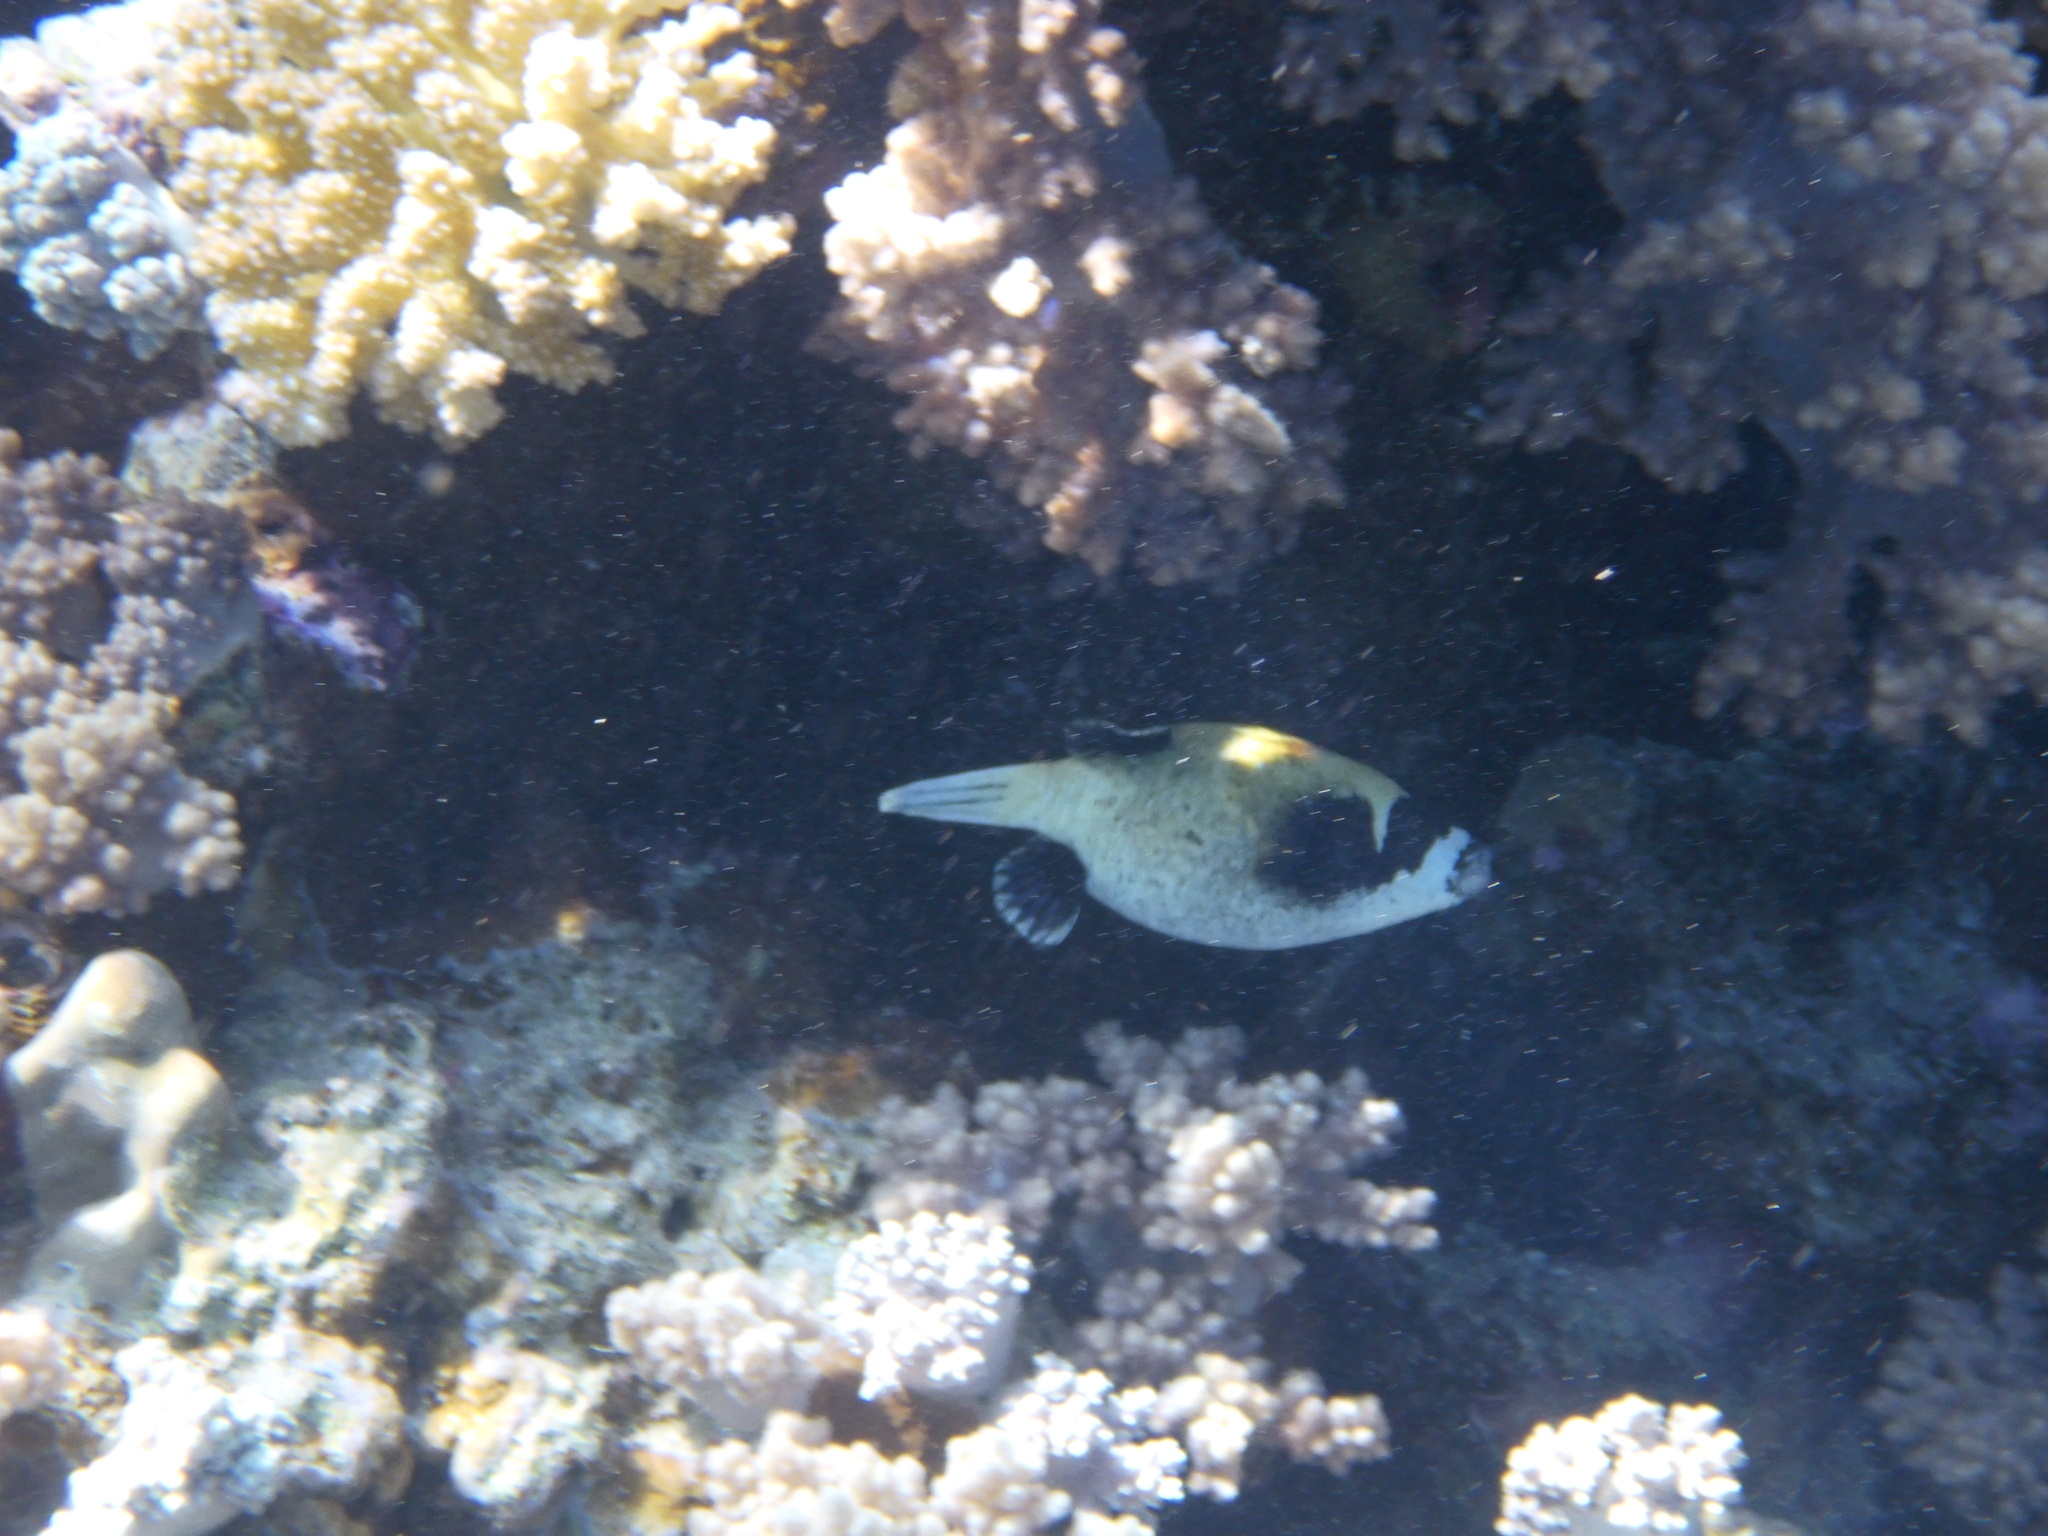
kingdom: Animalia
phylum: Chordata
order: Tetraodontiformes
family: Tetraodontidae
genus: Arothron
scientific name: Arothron diadematus
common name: Masked puffer
